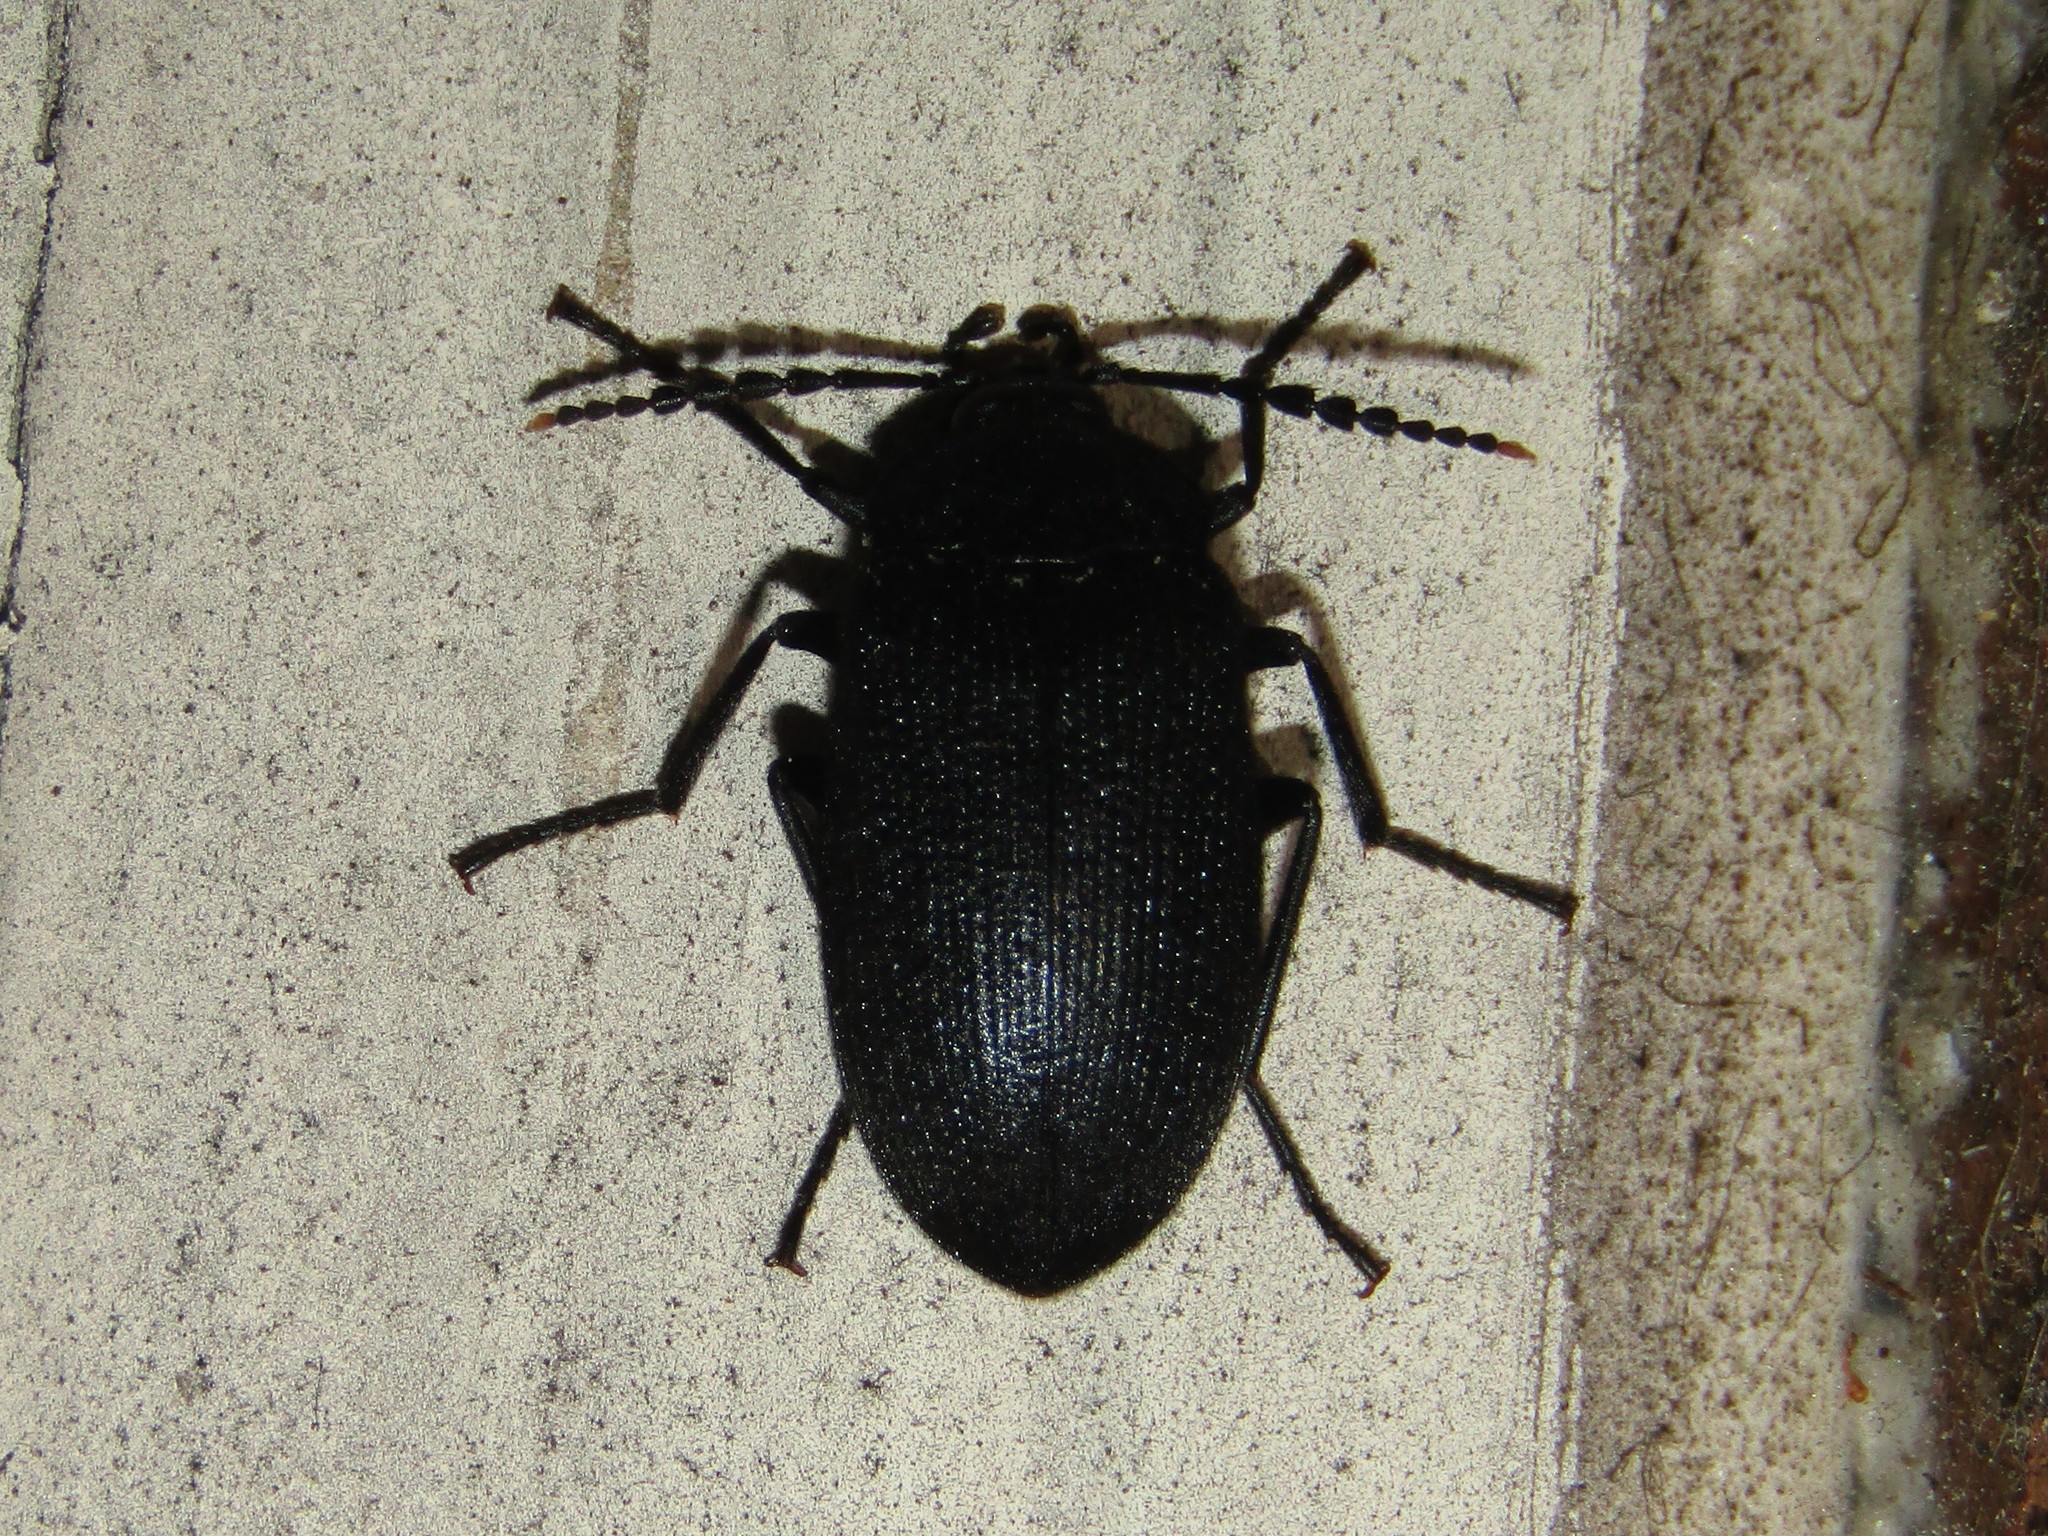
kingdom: Animalia
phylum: Arthropoda
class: Insecta
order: Coleoptera
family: Tetratomidae
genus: Penthe
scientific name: Penthe pimelia
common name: Velvety bark beetle
